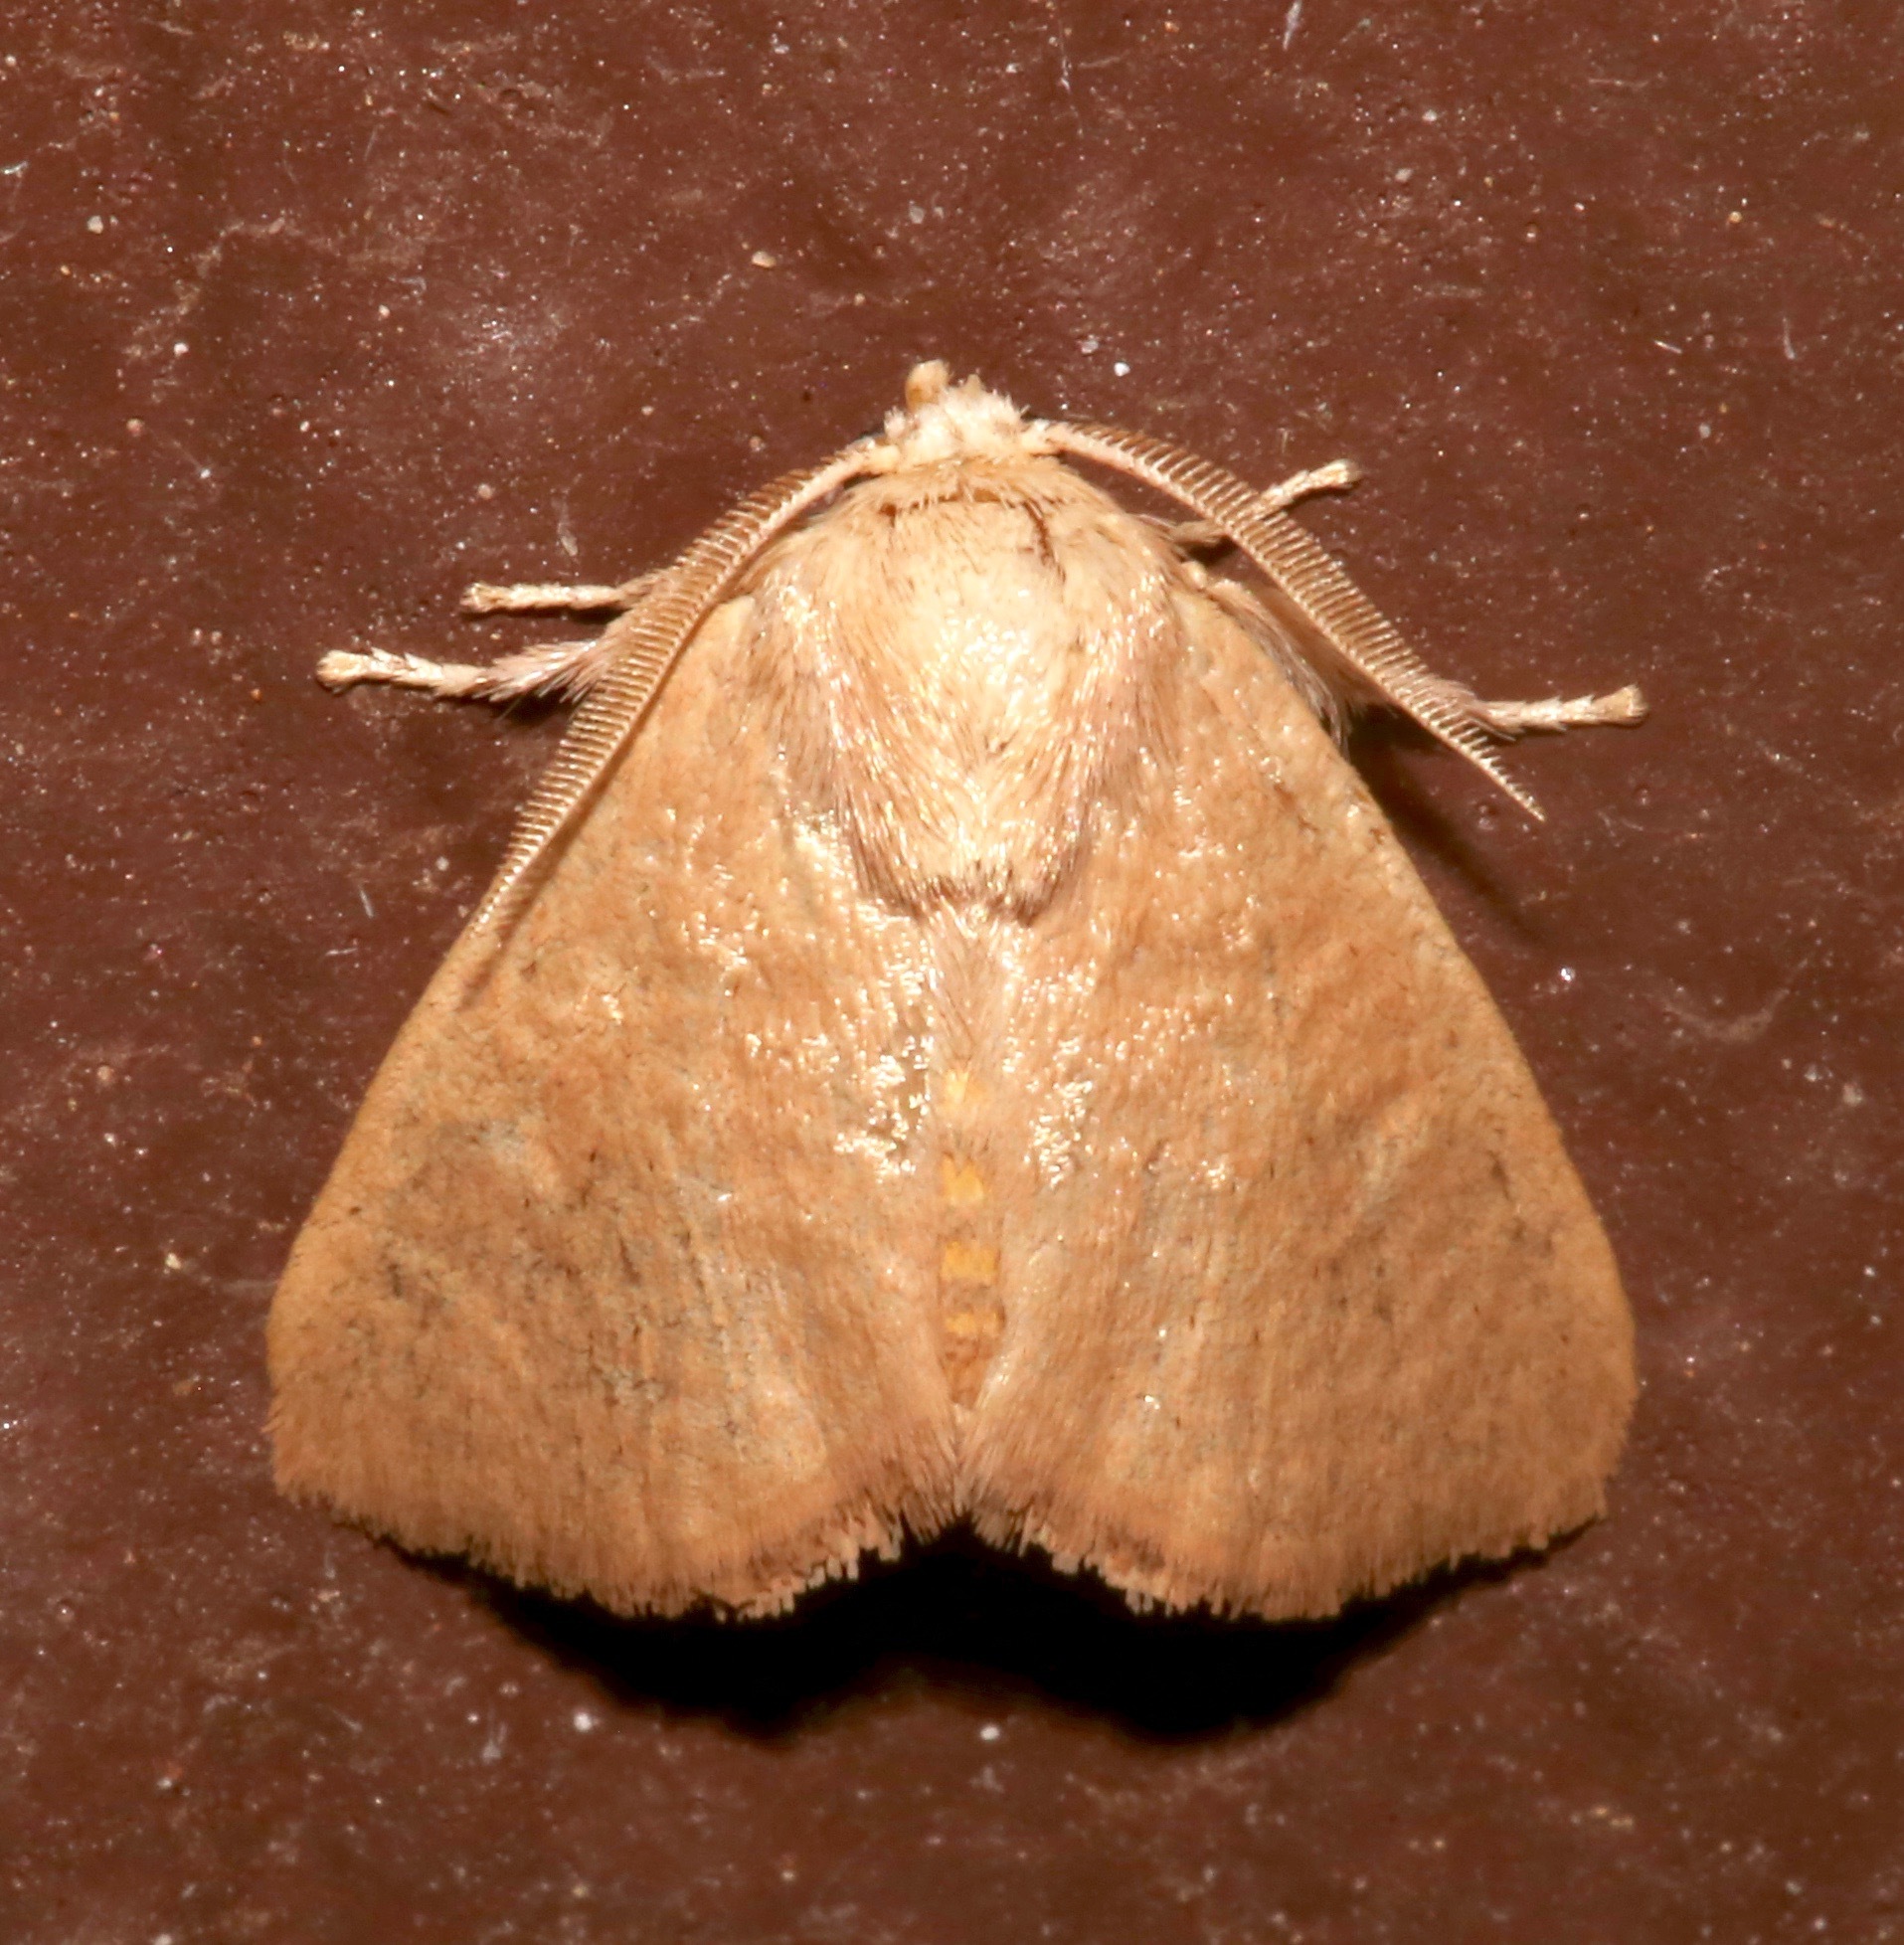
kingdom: Animalia
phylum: Arthropoda
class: Insecta
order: Lepidoptera
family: Limacodidae
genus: Isa
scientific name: Isa schaefferana
